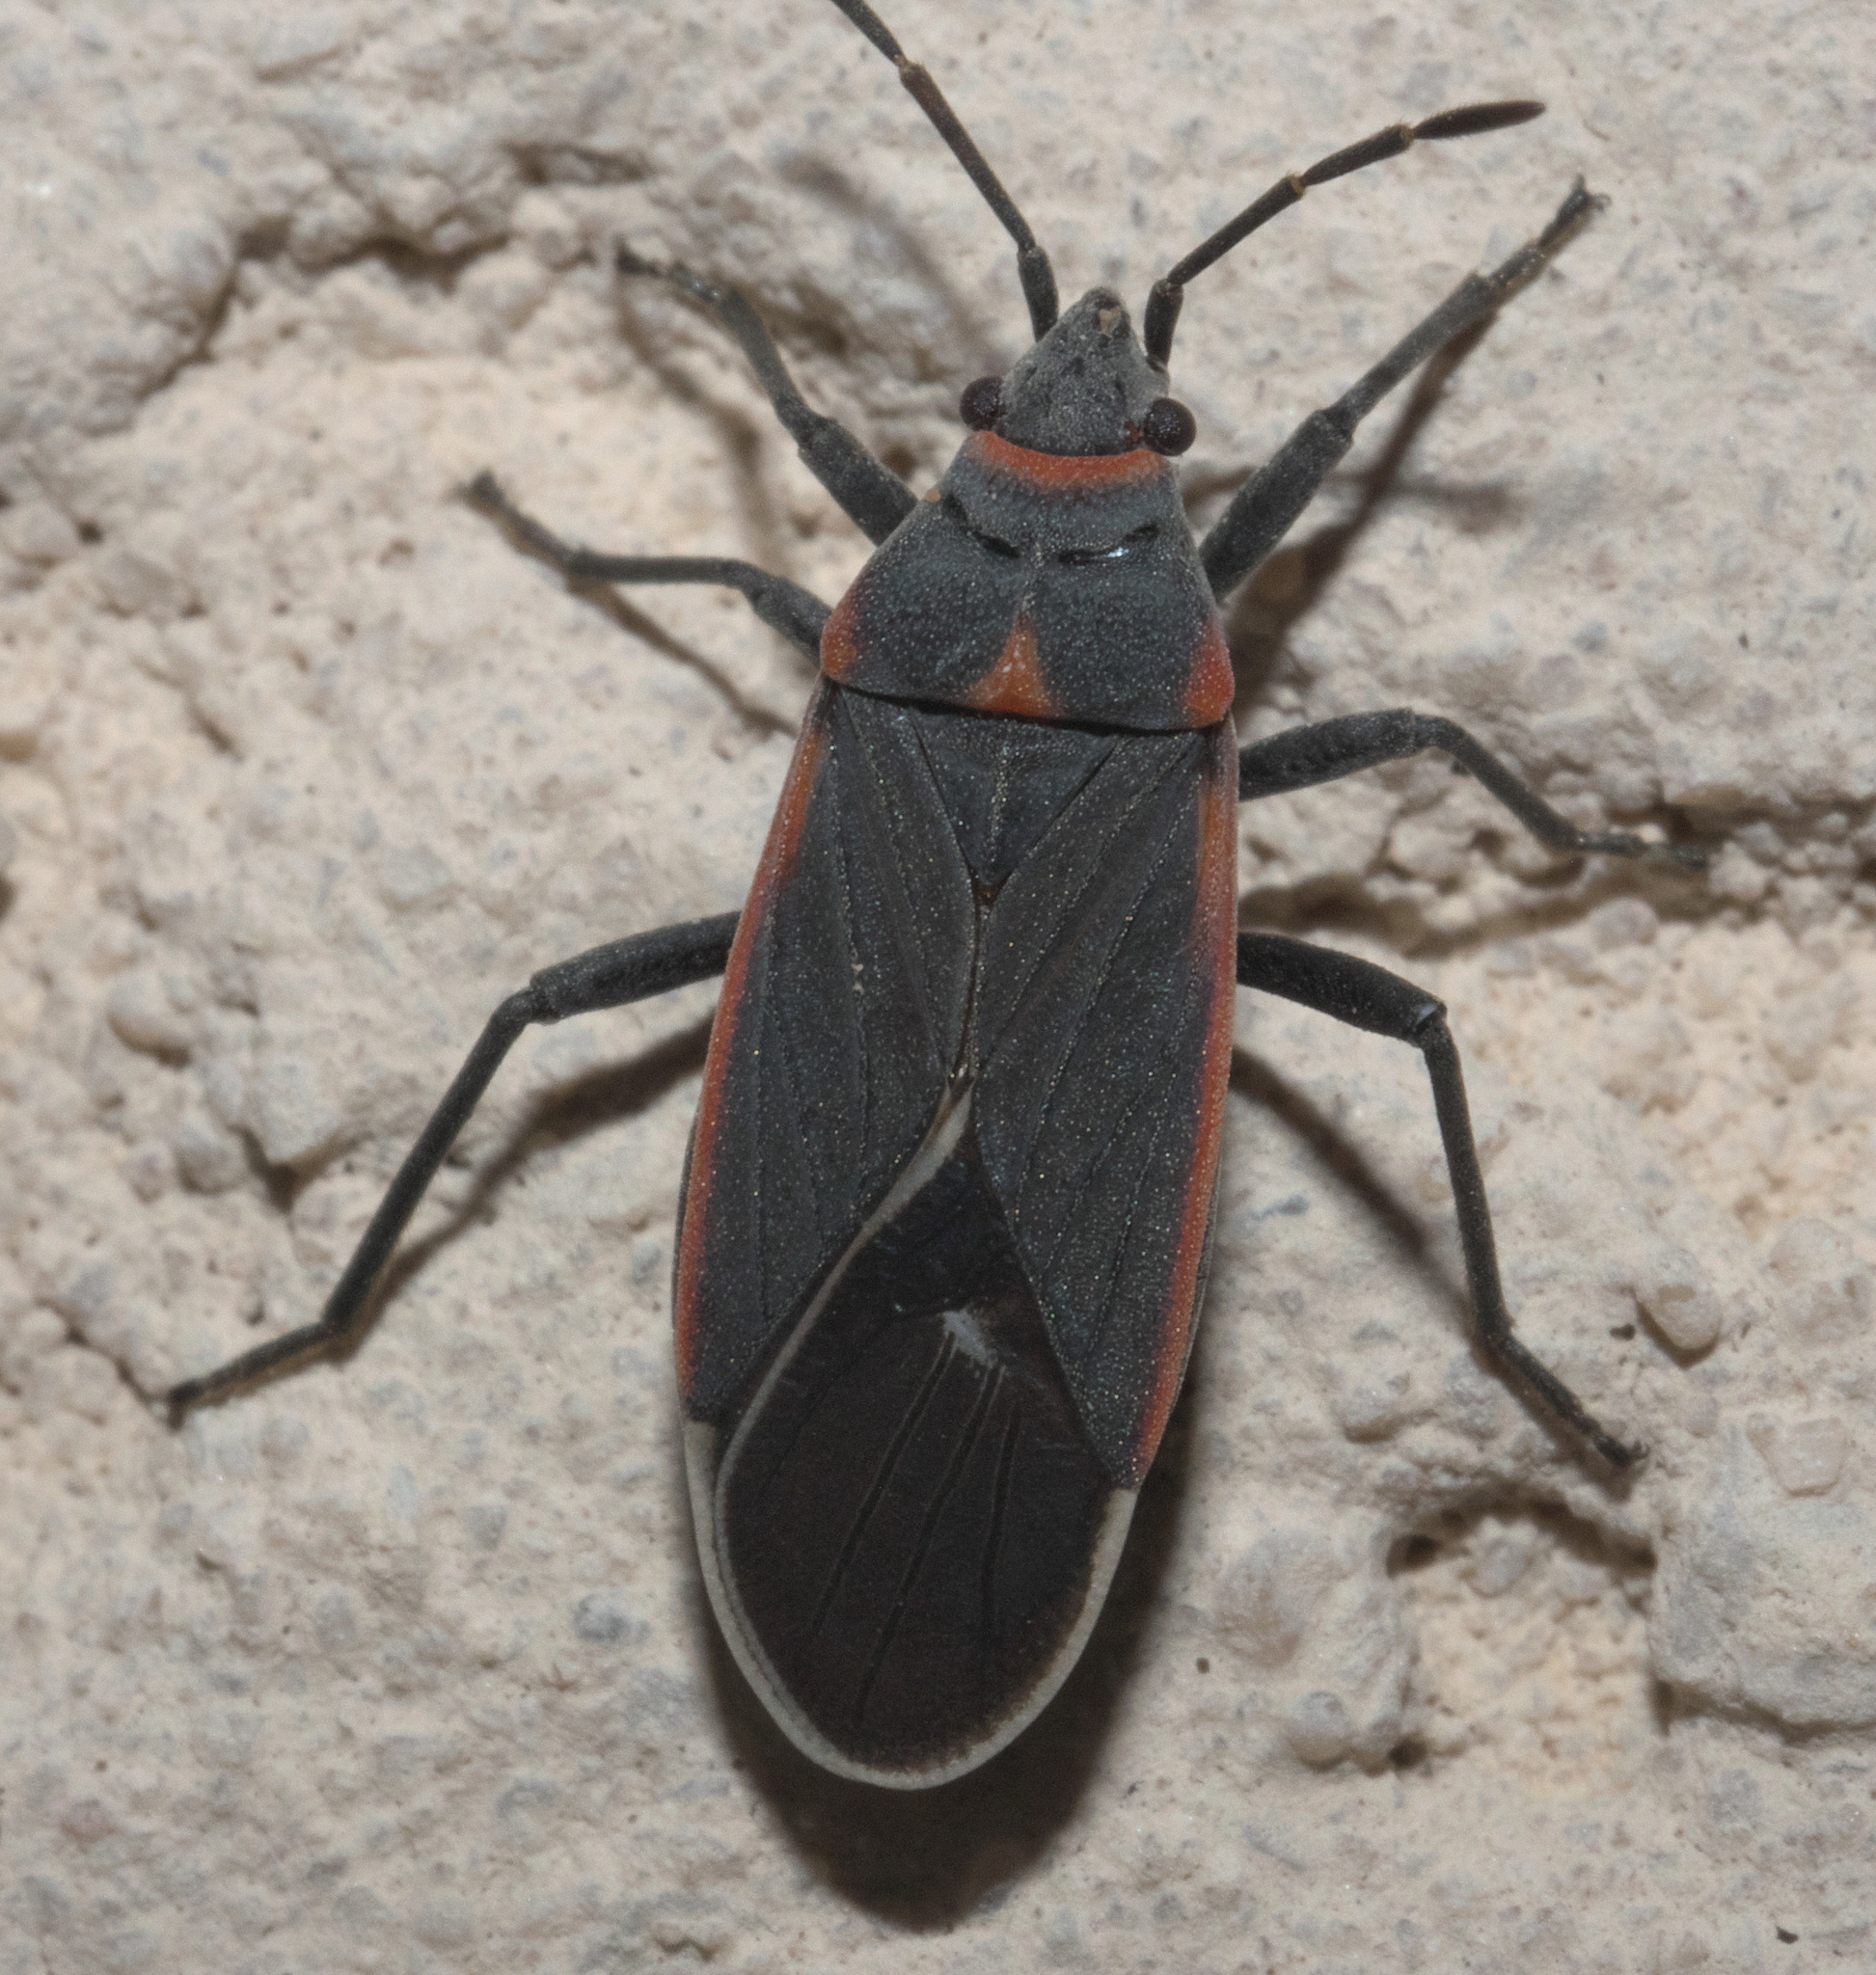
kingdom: Animalia
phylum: Arthropoda
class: Insecta
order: Hemiptera
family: Lygaeidae
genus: Melacoryphus
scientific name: Melacoryphus lateralis
